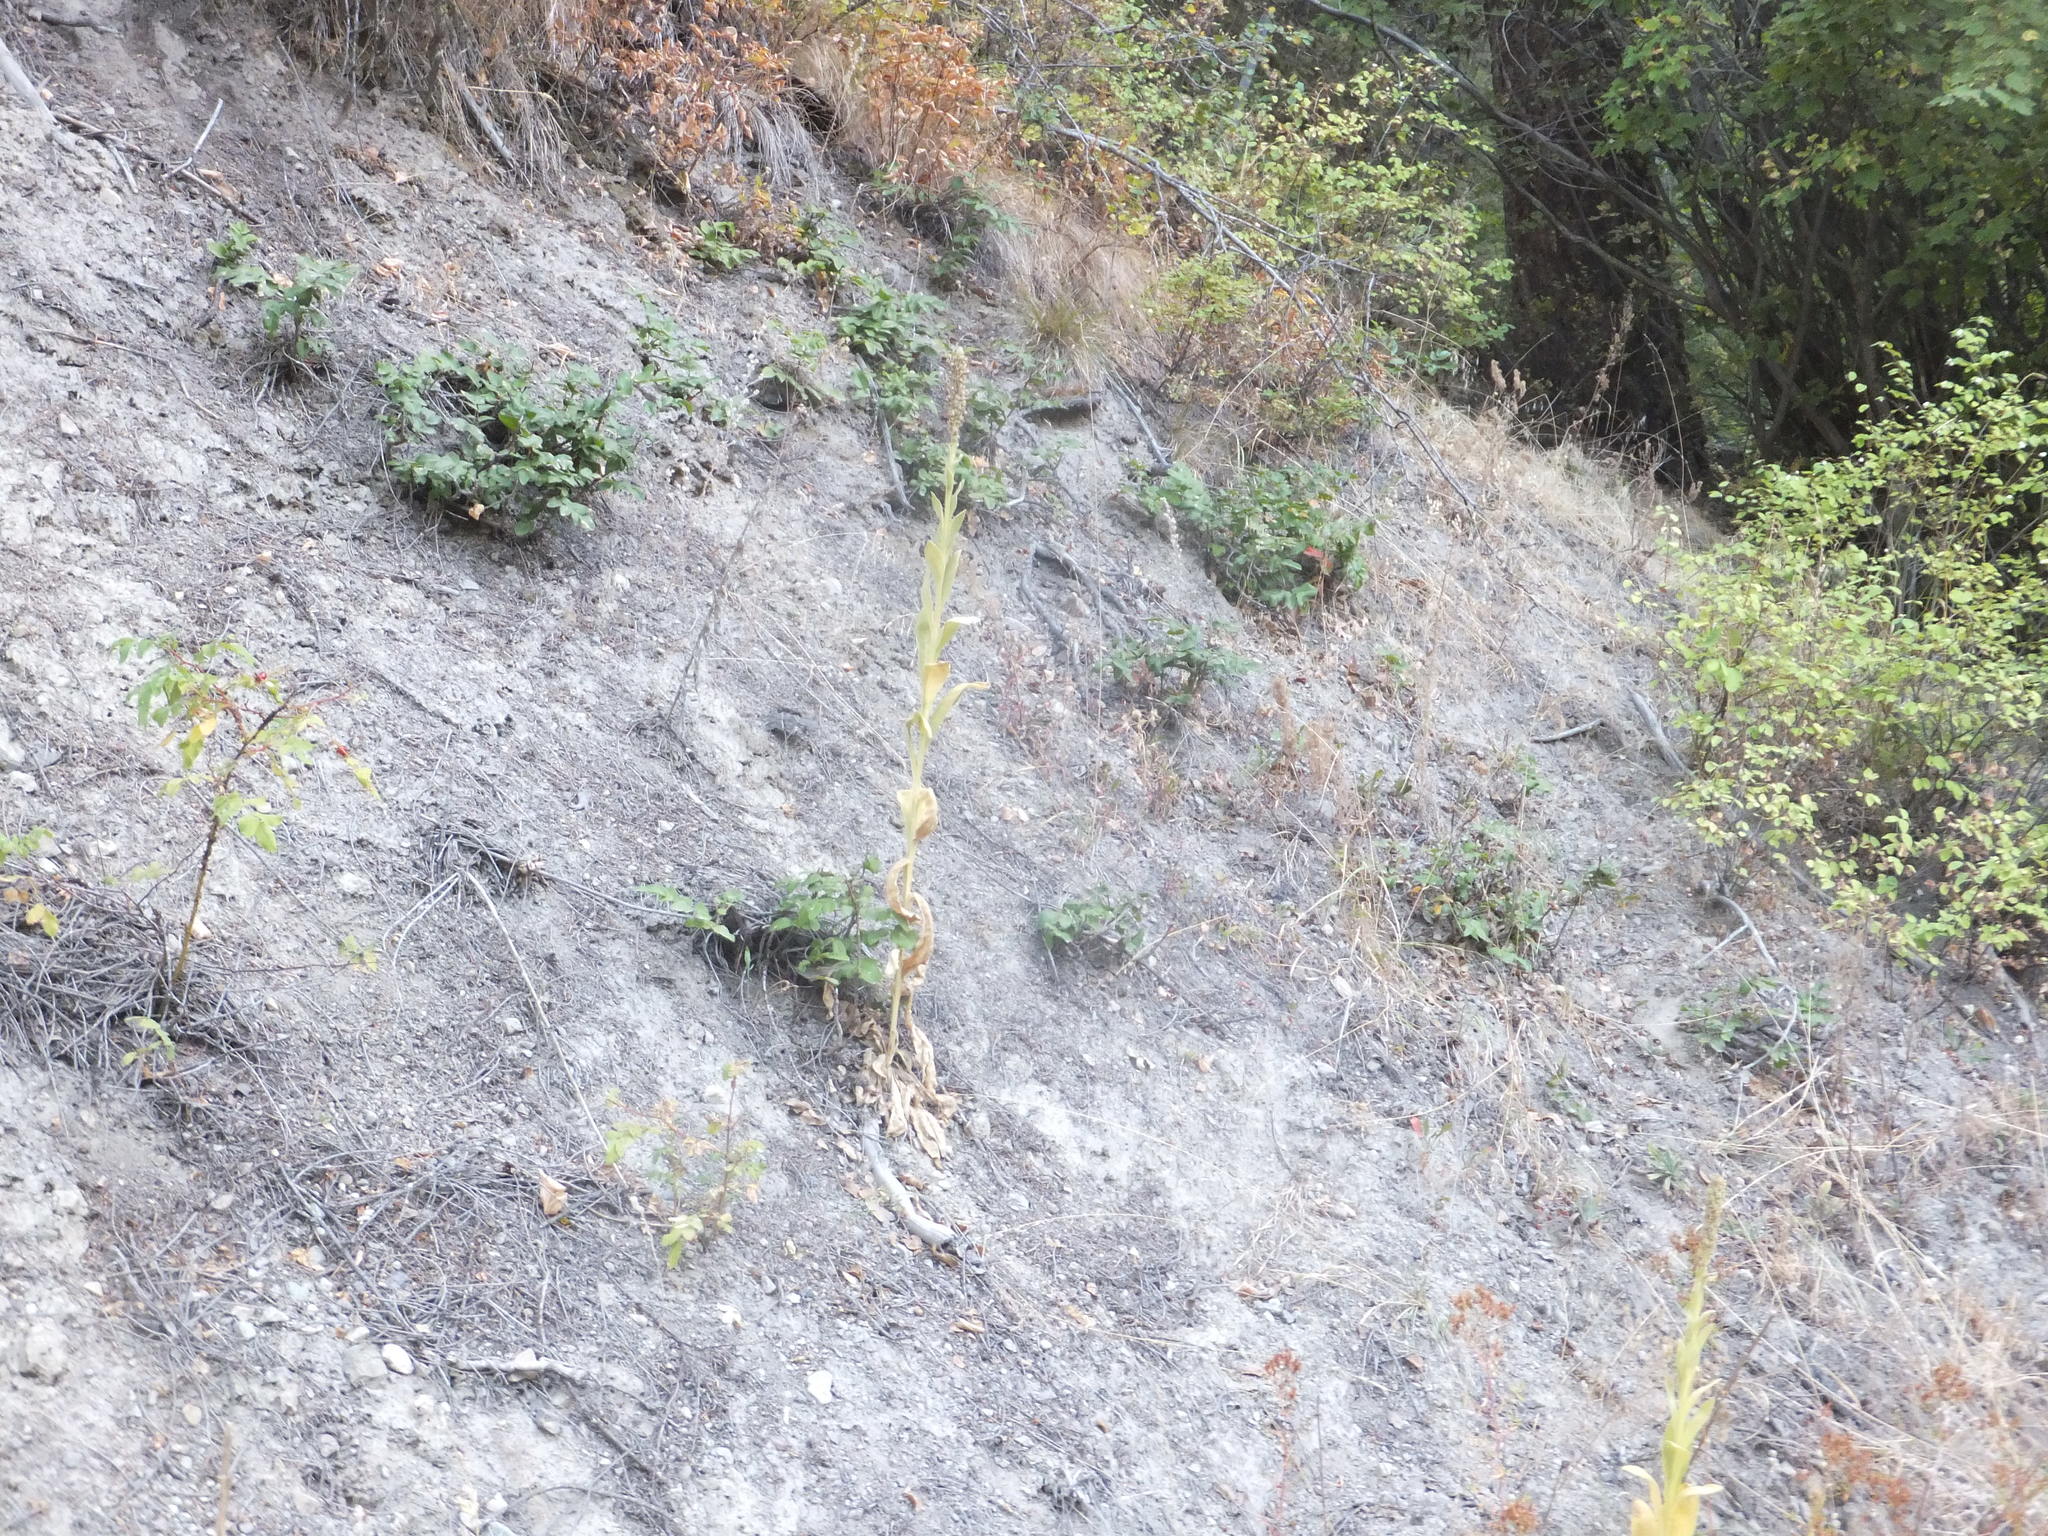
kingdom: Plantae
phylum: Tracheophyta
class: Magnoliopsida
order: Ranunculales
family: Berberidaceae
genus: Mahonia
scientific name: Mahonia repens
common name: Creeping oregon-grape
